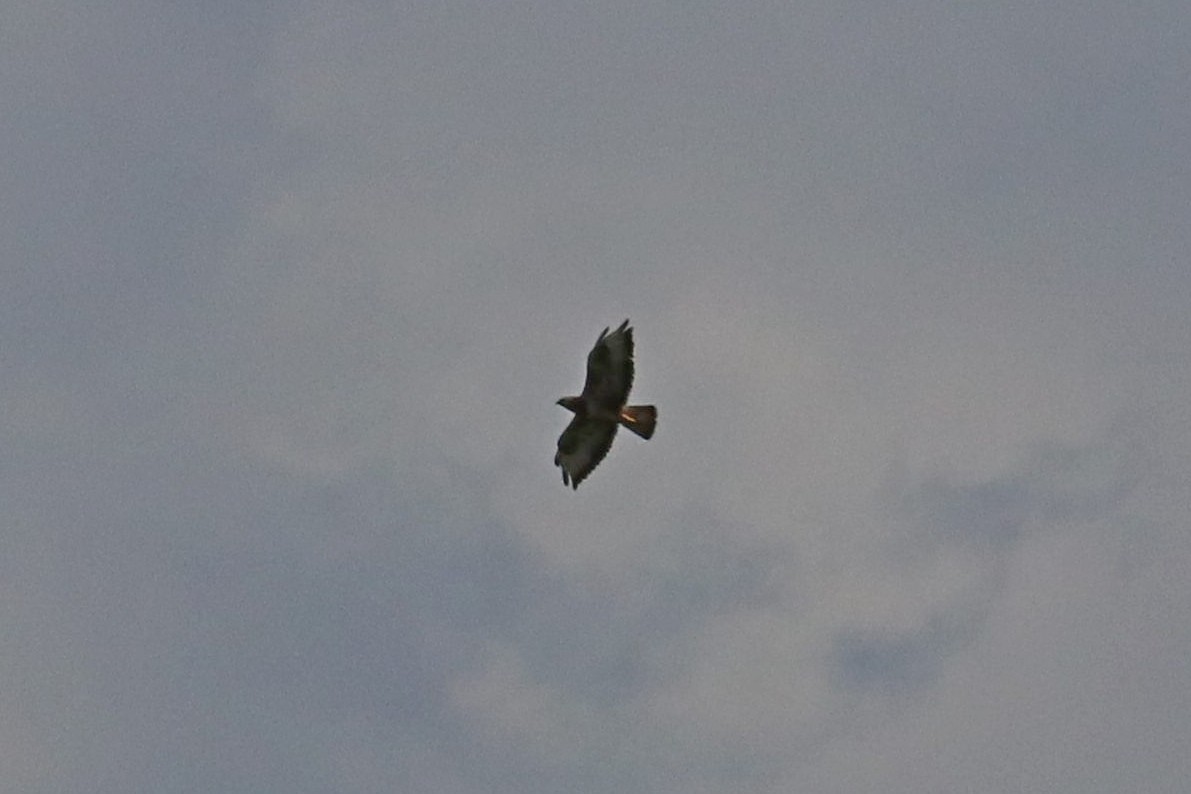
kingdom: Animalia
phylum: Chordata
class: Aves
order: Accipitriformes
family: Accipitridae
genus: Buteo
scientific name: Buteo buteo
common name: Common buzzard
